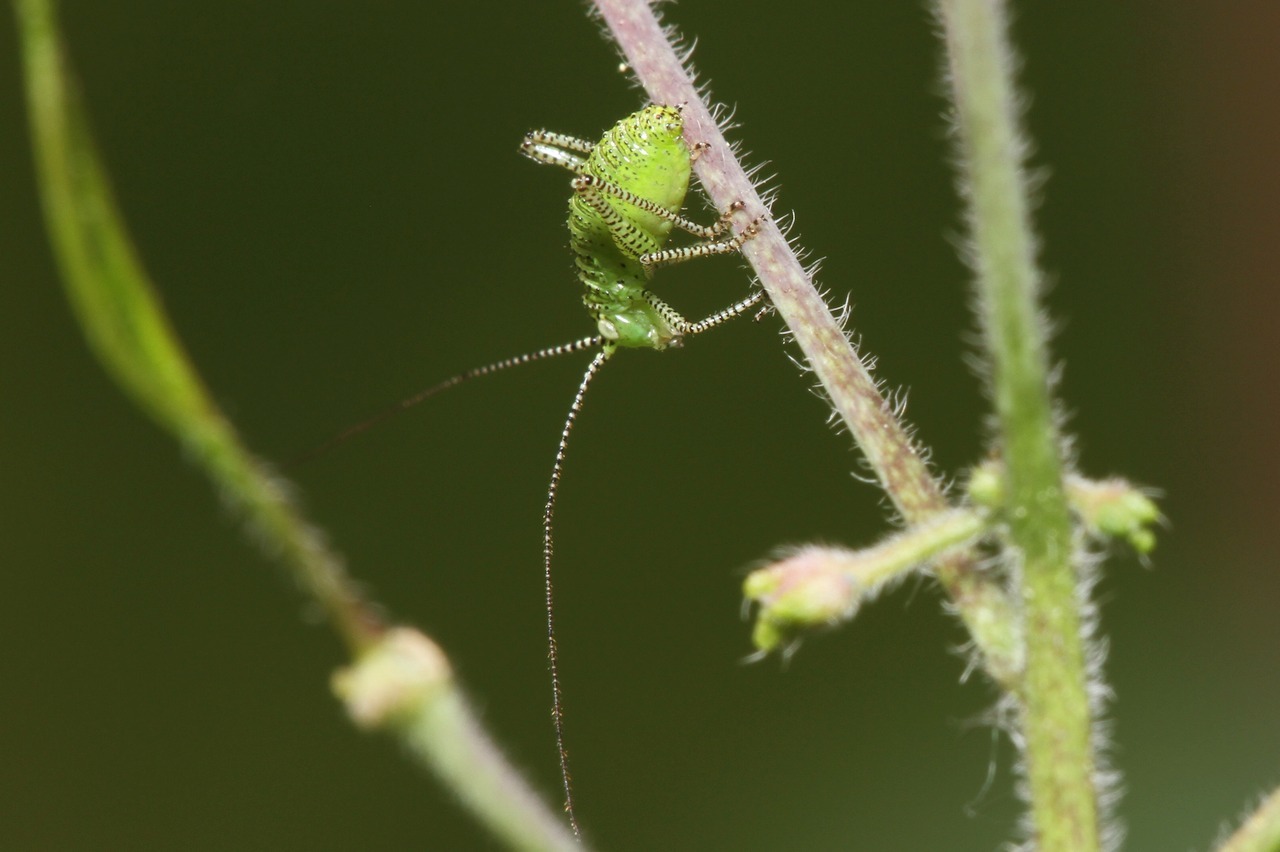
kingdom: Animalia
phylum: Arthropoda
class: Insecta
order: Orthoptera
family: Tettigoniidae
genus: Leptophyes
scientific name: Leptophyes punctatissima
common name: Speckled bush-cricket
